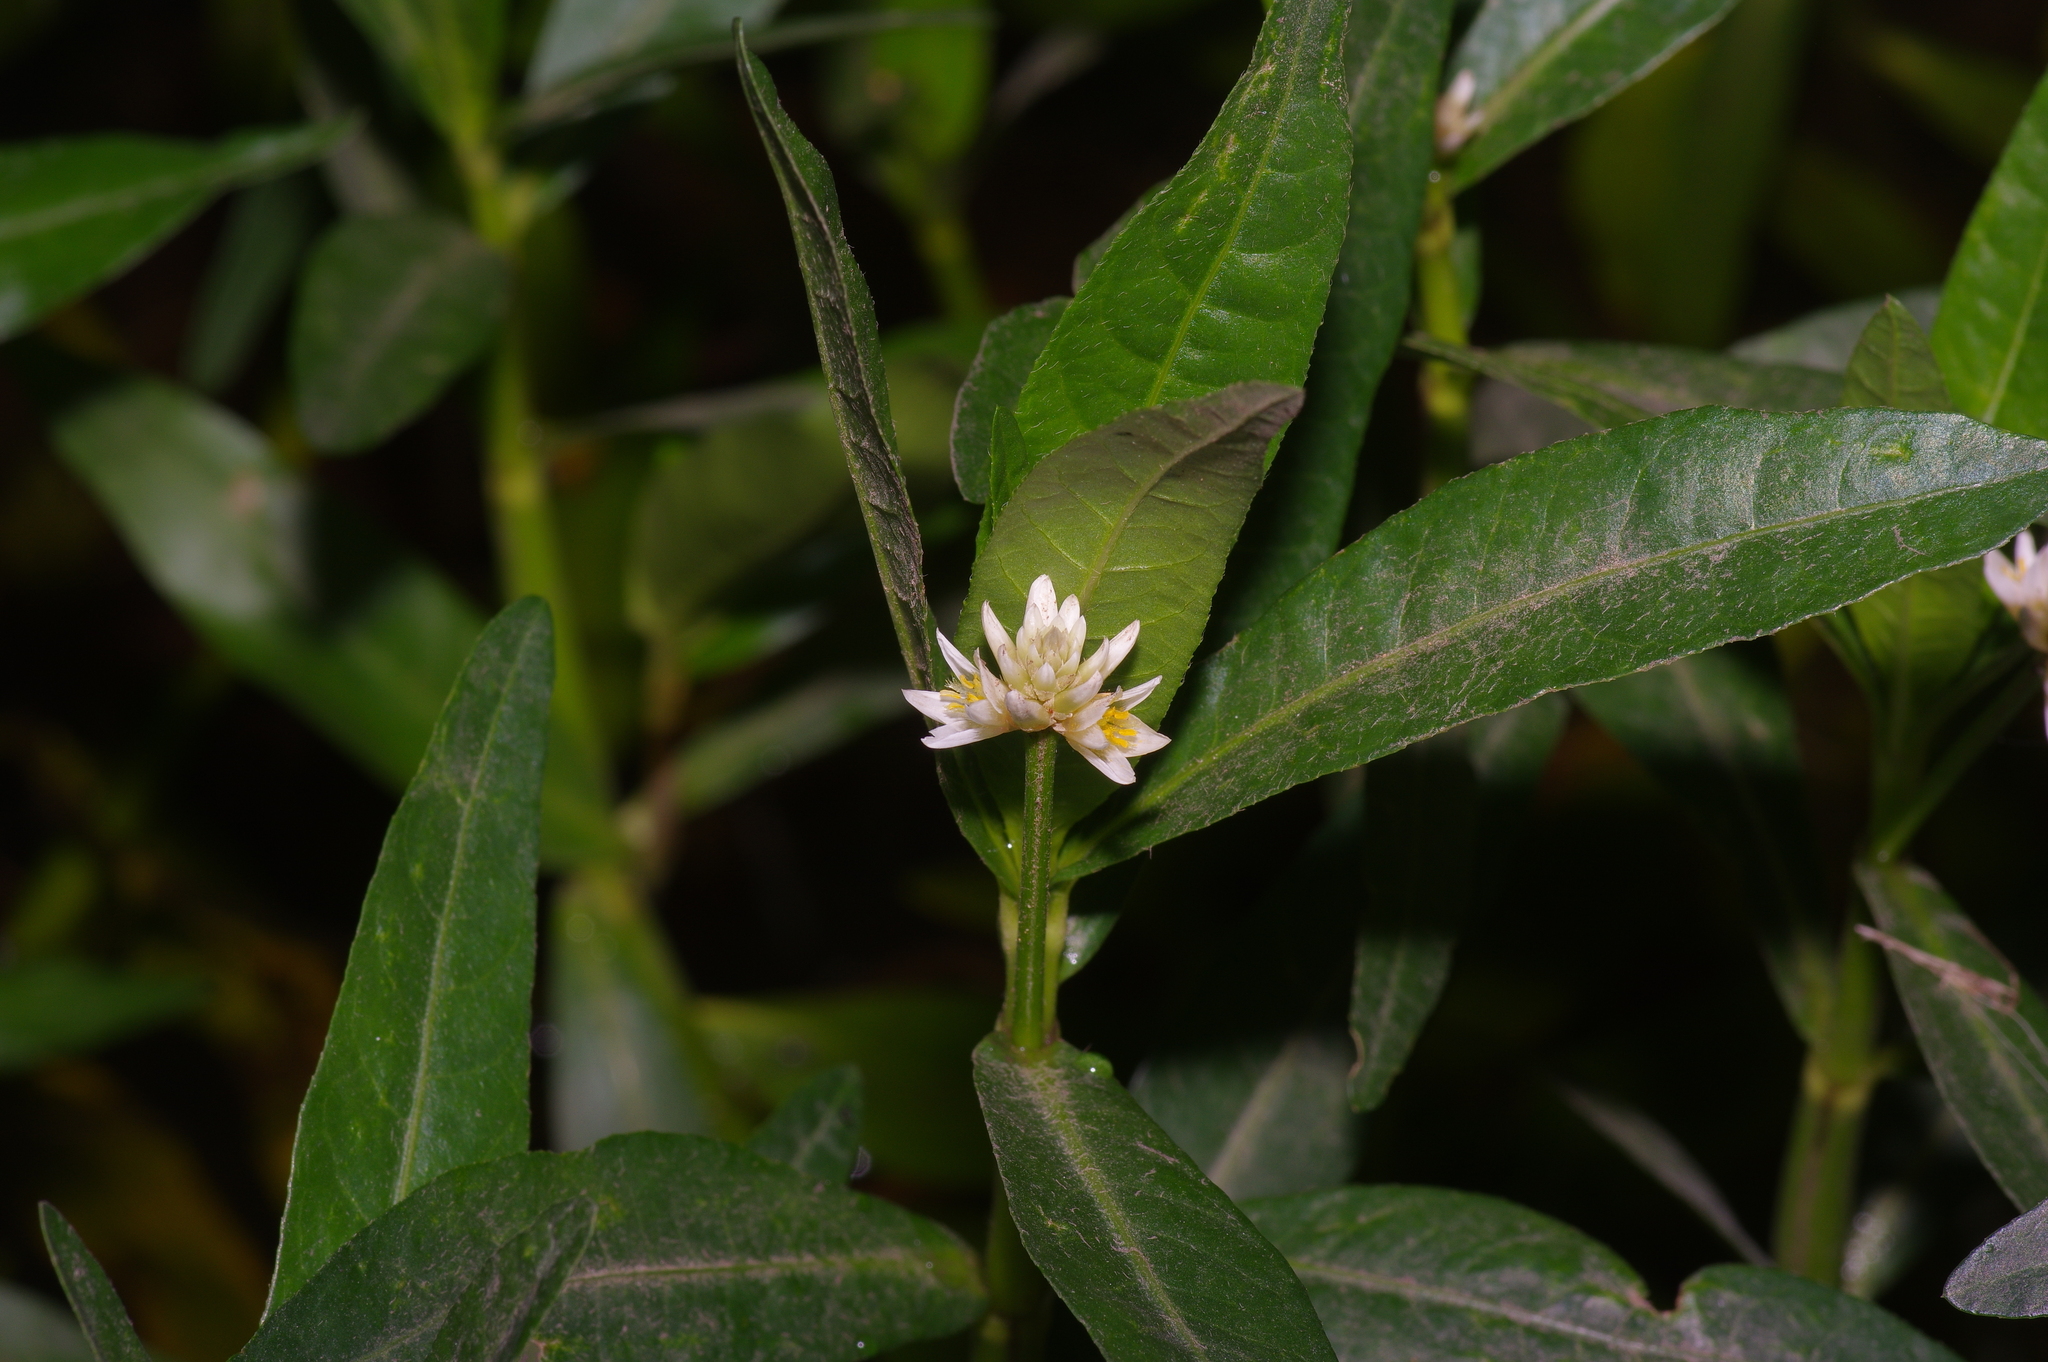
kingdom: Plantae
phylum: Tracheophyta
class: Magnoliopsida
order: Caryophyllales
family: Amaranthaceae
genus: Alternanthera
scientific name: Alternanthera philoxeroides
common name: Alligatorweed
